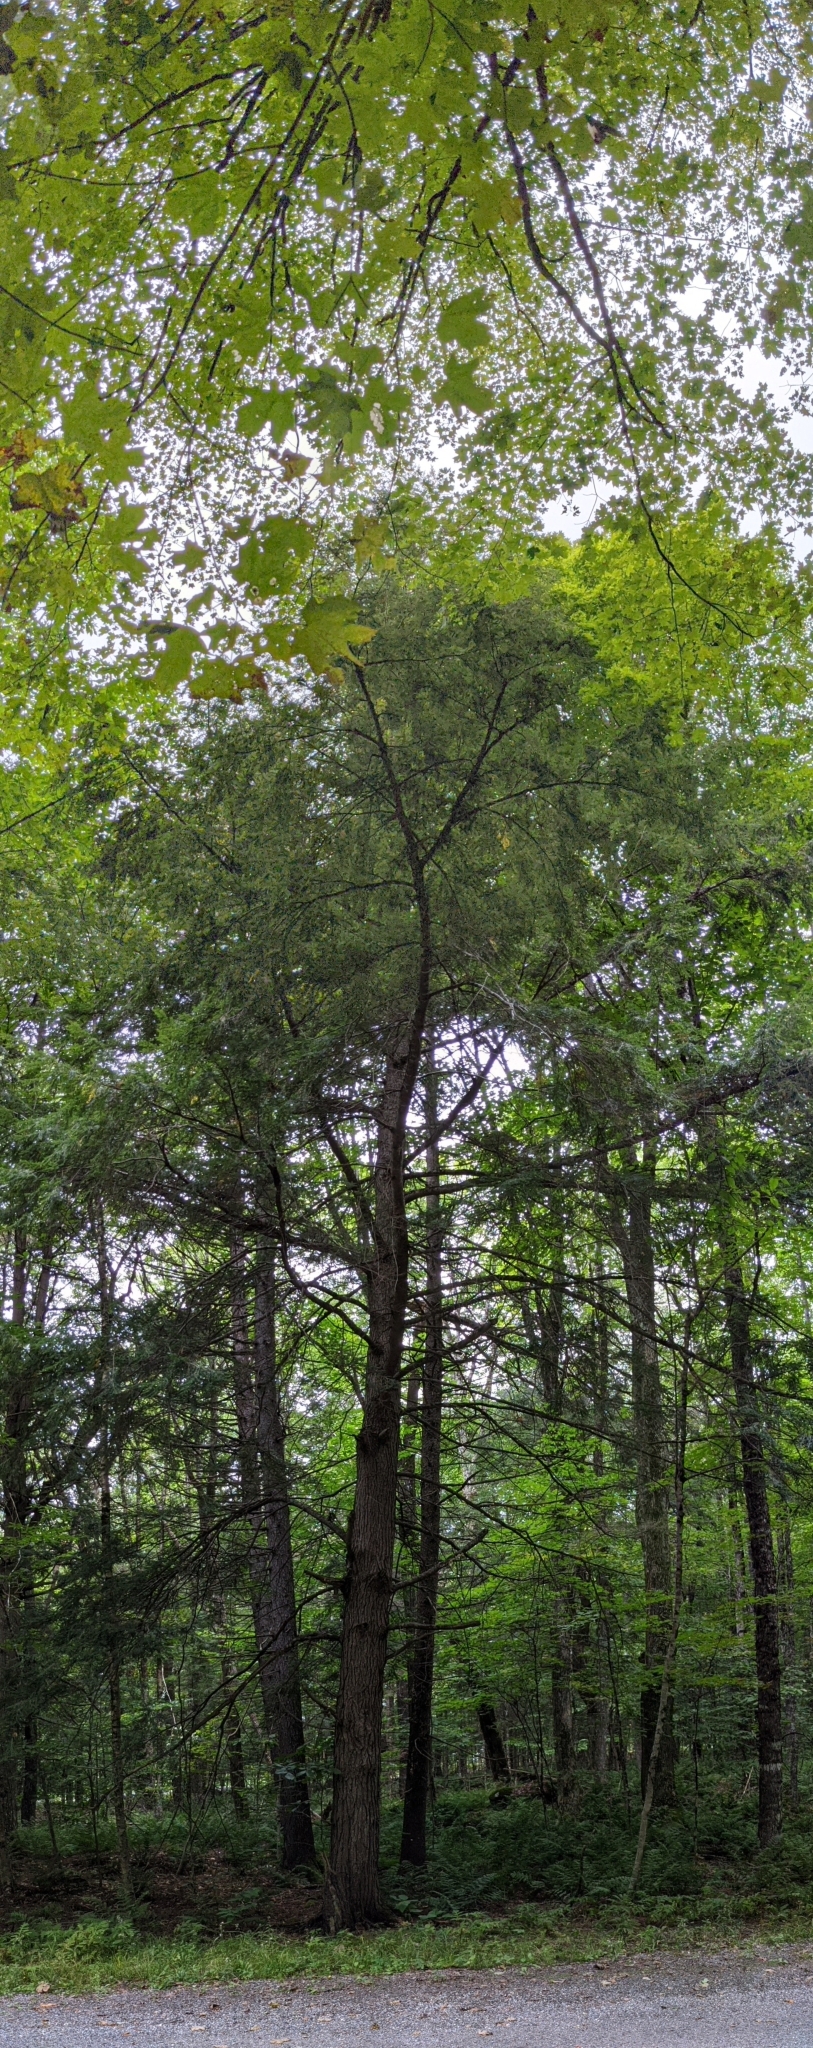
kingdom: Plantae
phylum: Tracheophyta
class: Pinopsida
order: Pinales
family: Pinaceae
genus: Tsuga
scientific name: Tsuga canadensis
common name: Eastern hemlock
